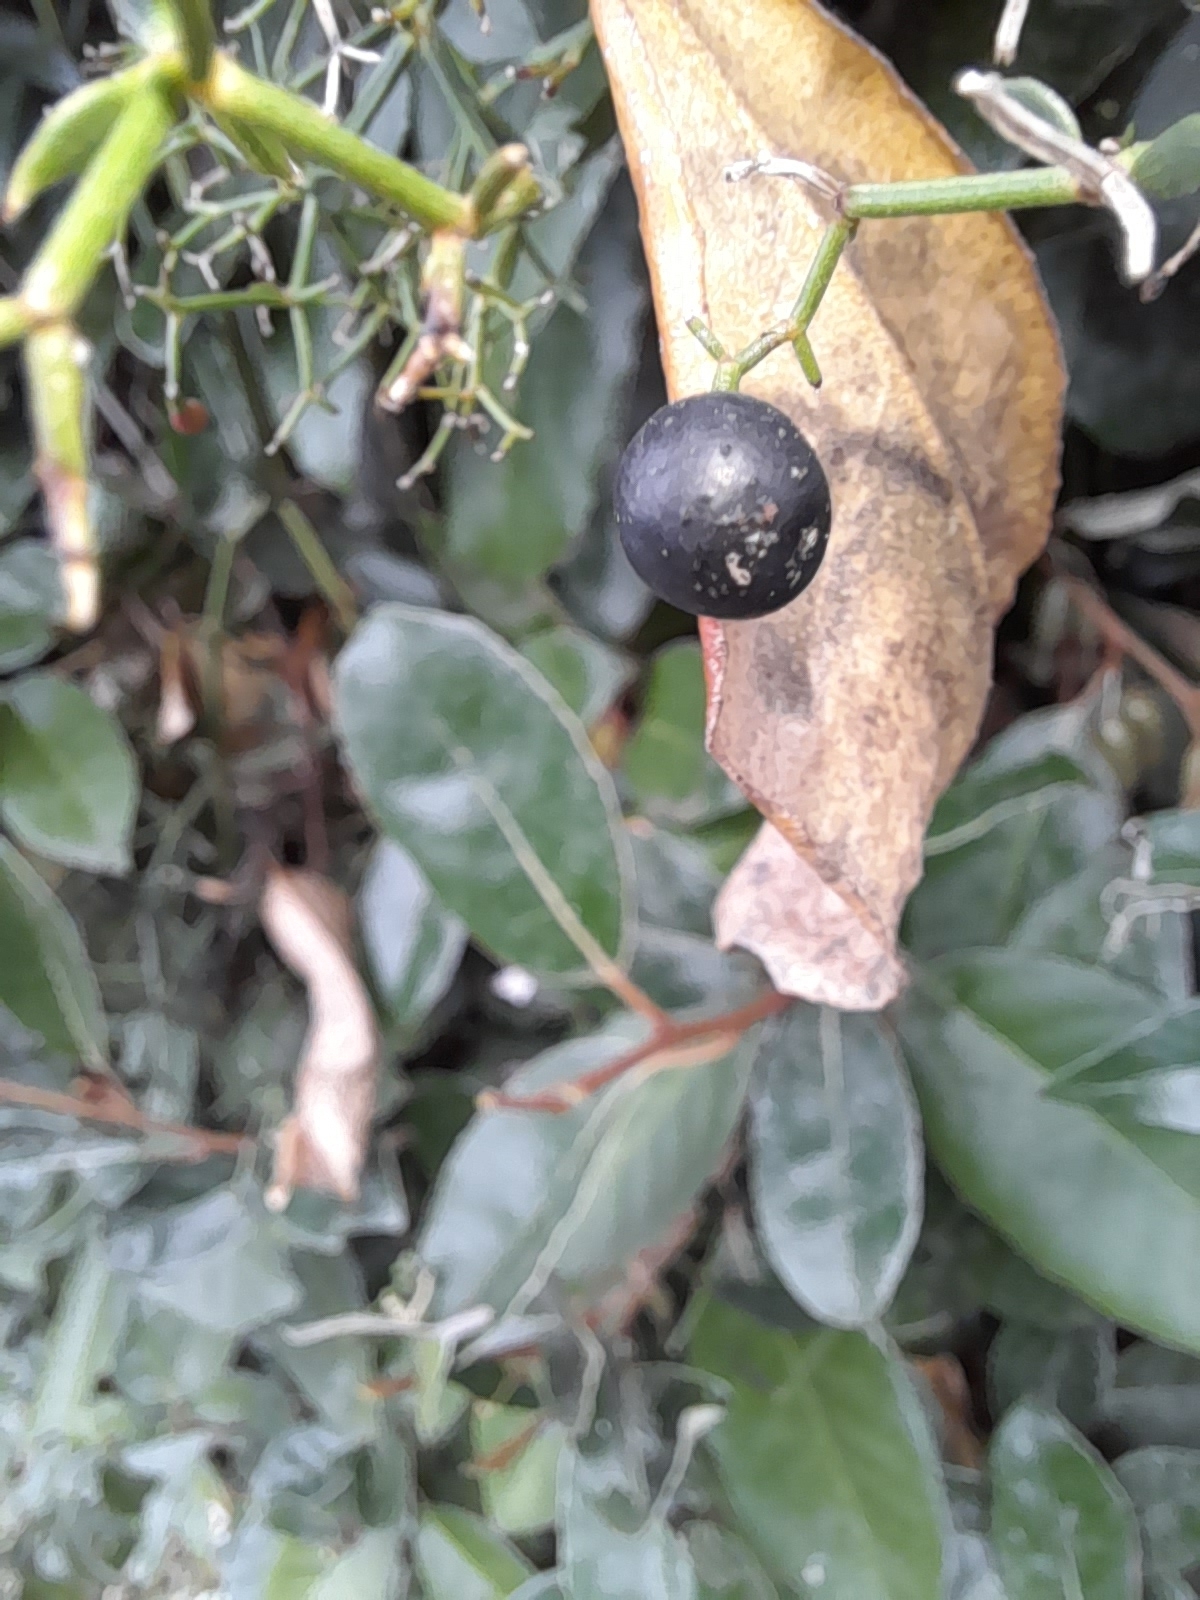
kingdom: Plantae
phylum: Tracheophyta
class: Magnoliopsida
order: Gentianales
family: Rubiaceae
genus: Rubia
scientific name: Rubia peregrina
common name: Wild madder
